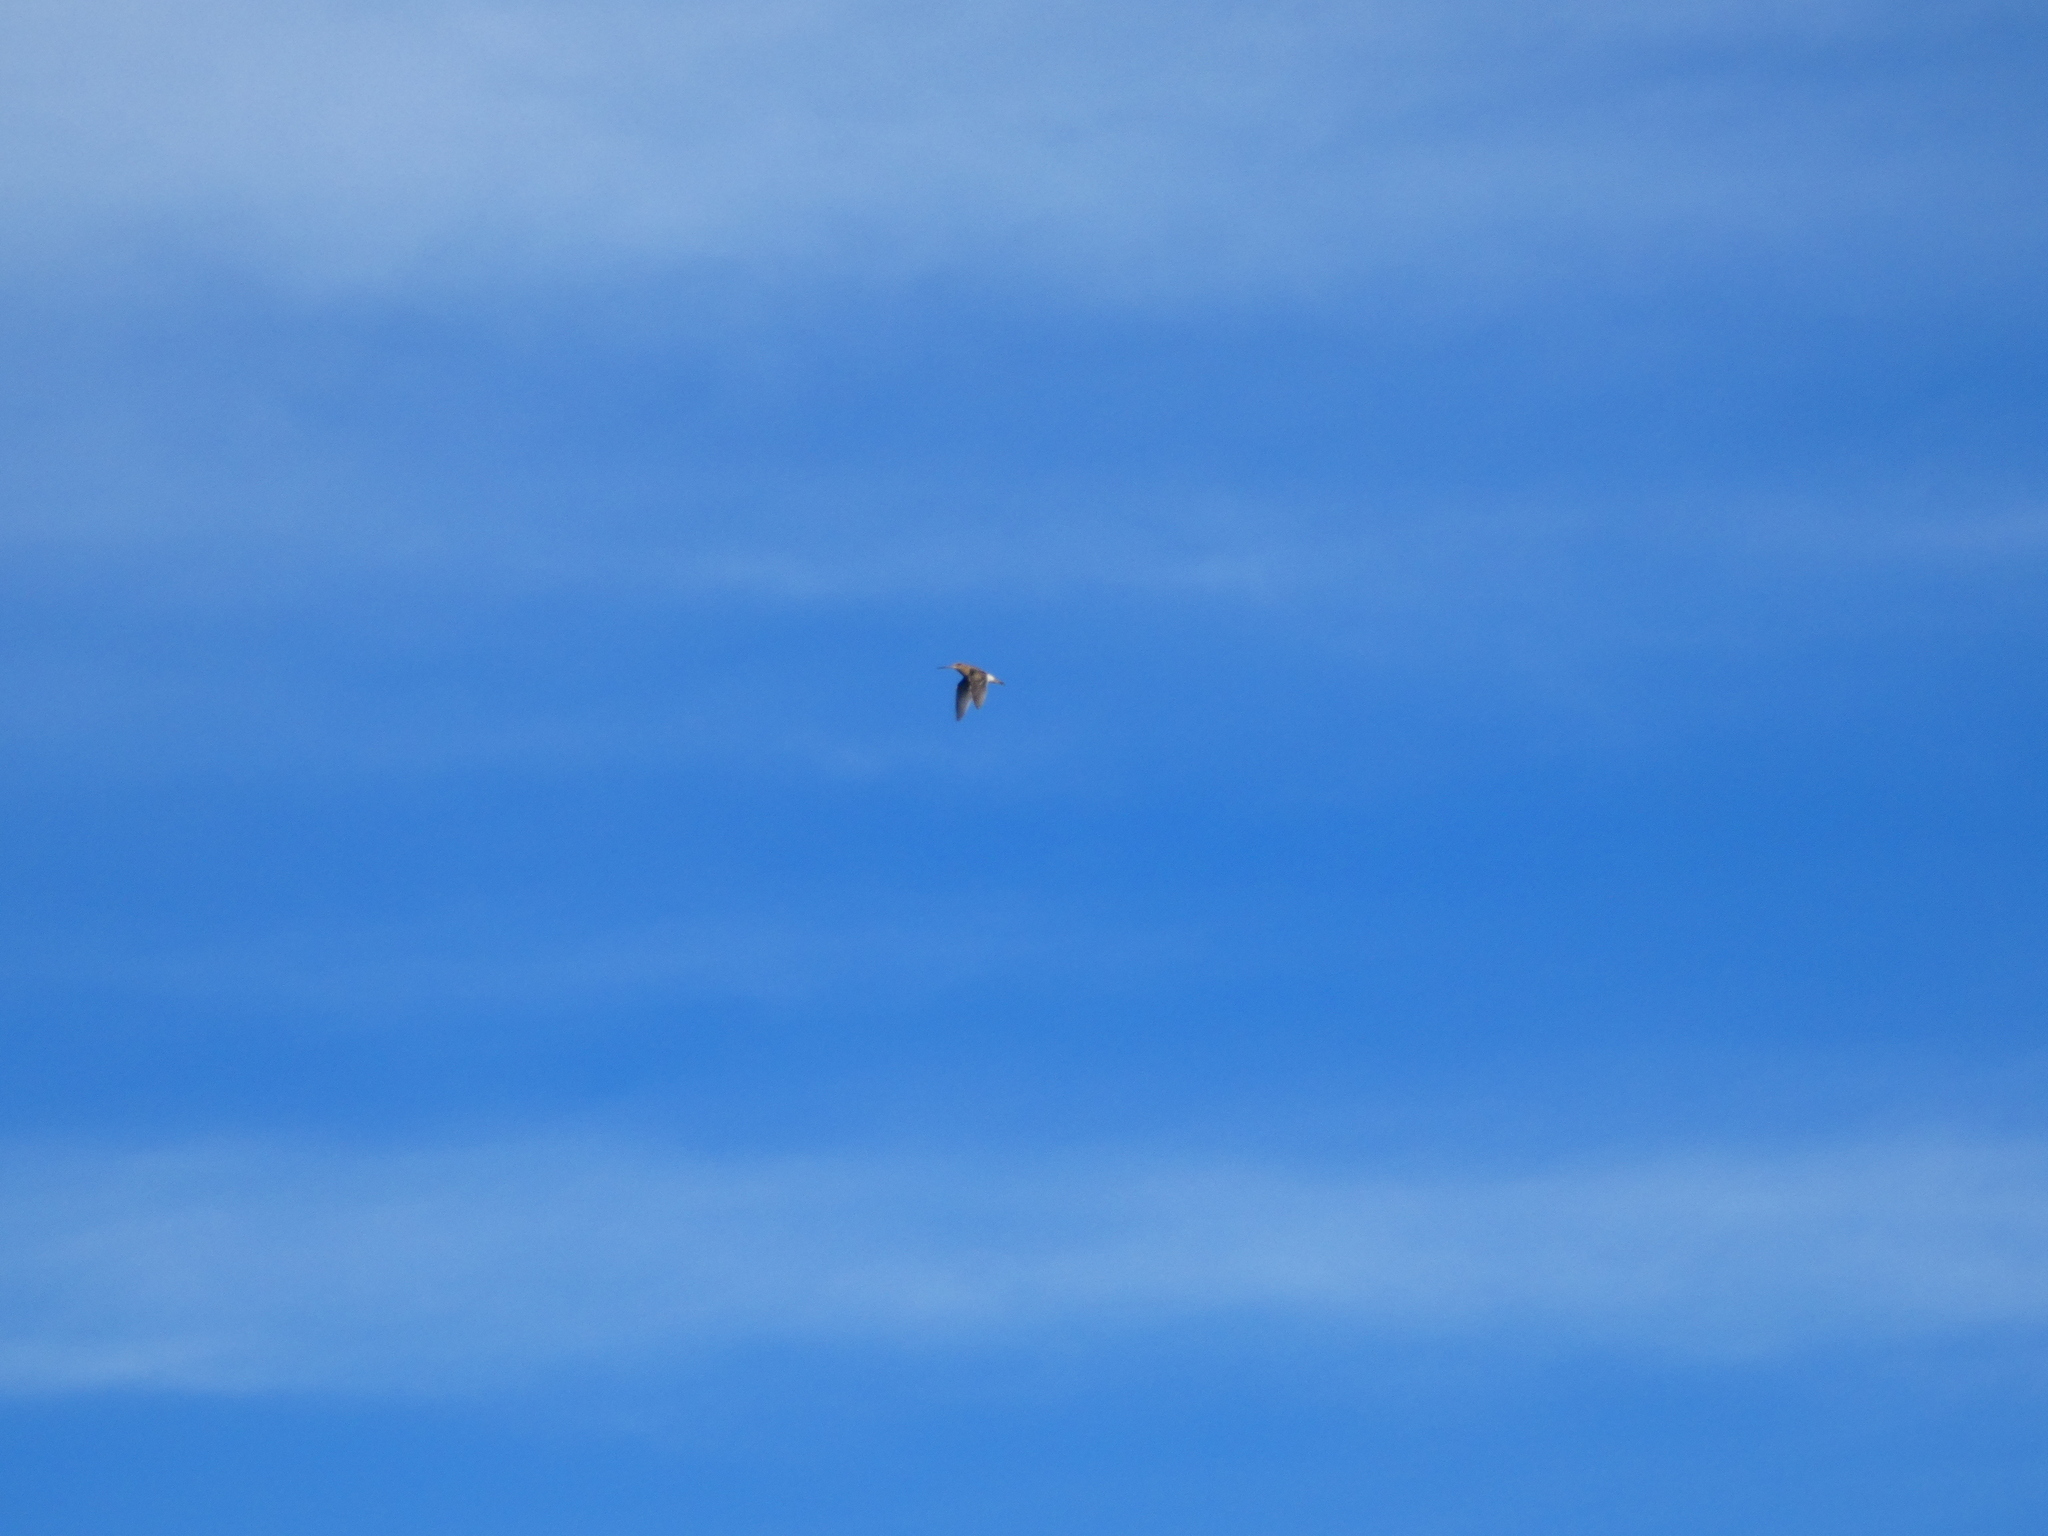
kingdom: Animalia
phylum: Chordata
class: Aves
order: Charadriiformes
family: Scolopacidae
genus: Gallinago
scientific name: Gallinago gallinago
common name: Common snipe
